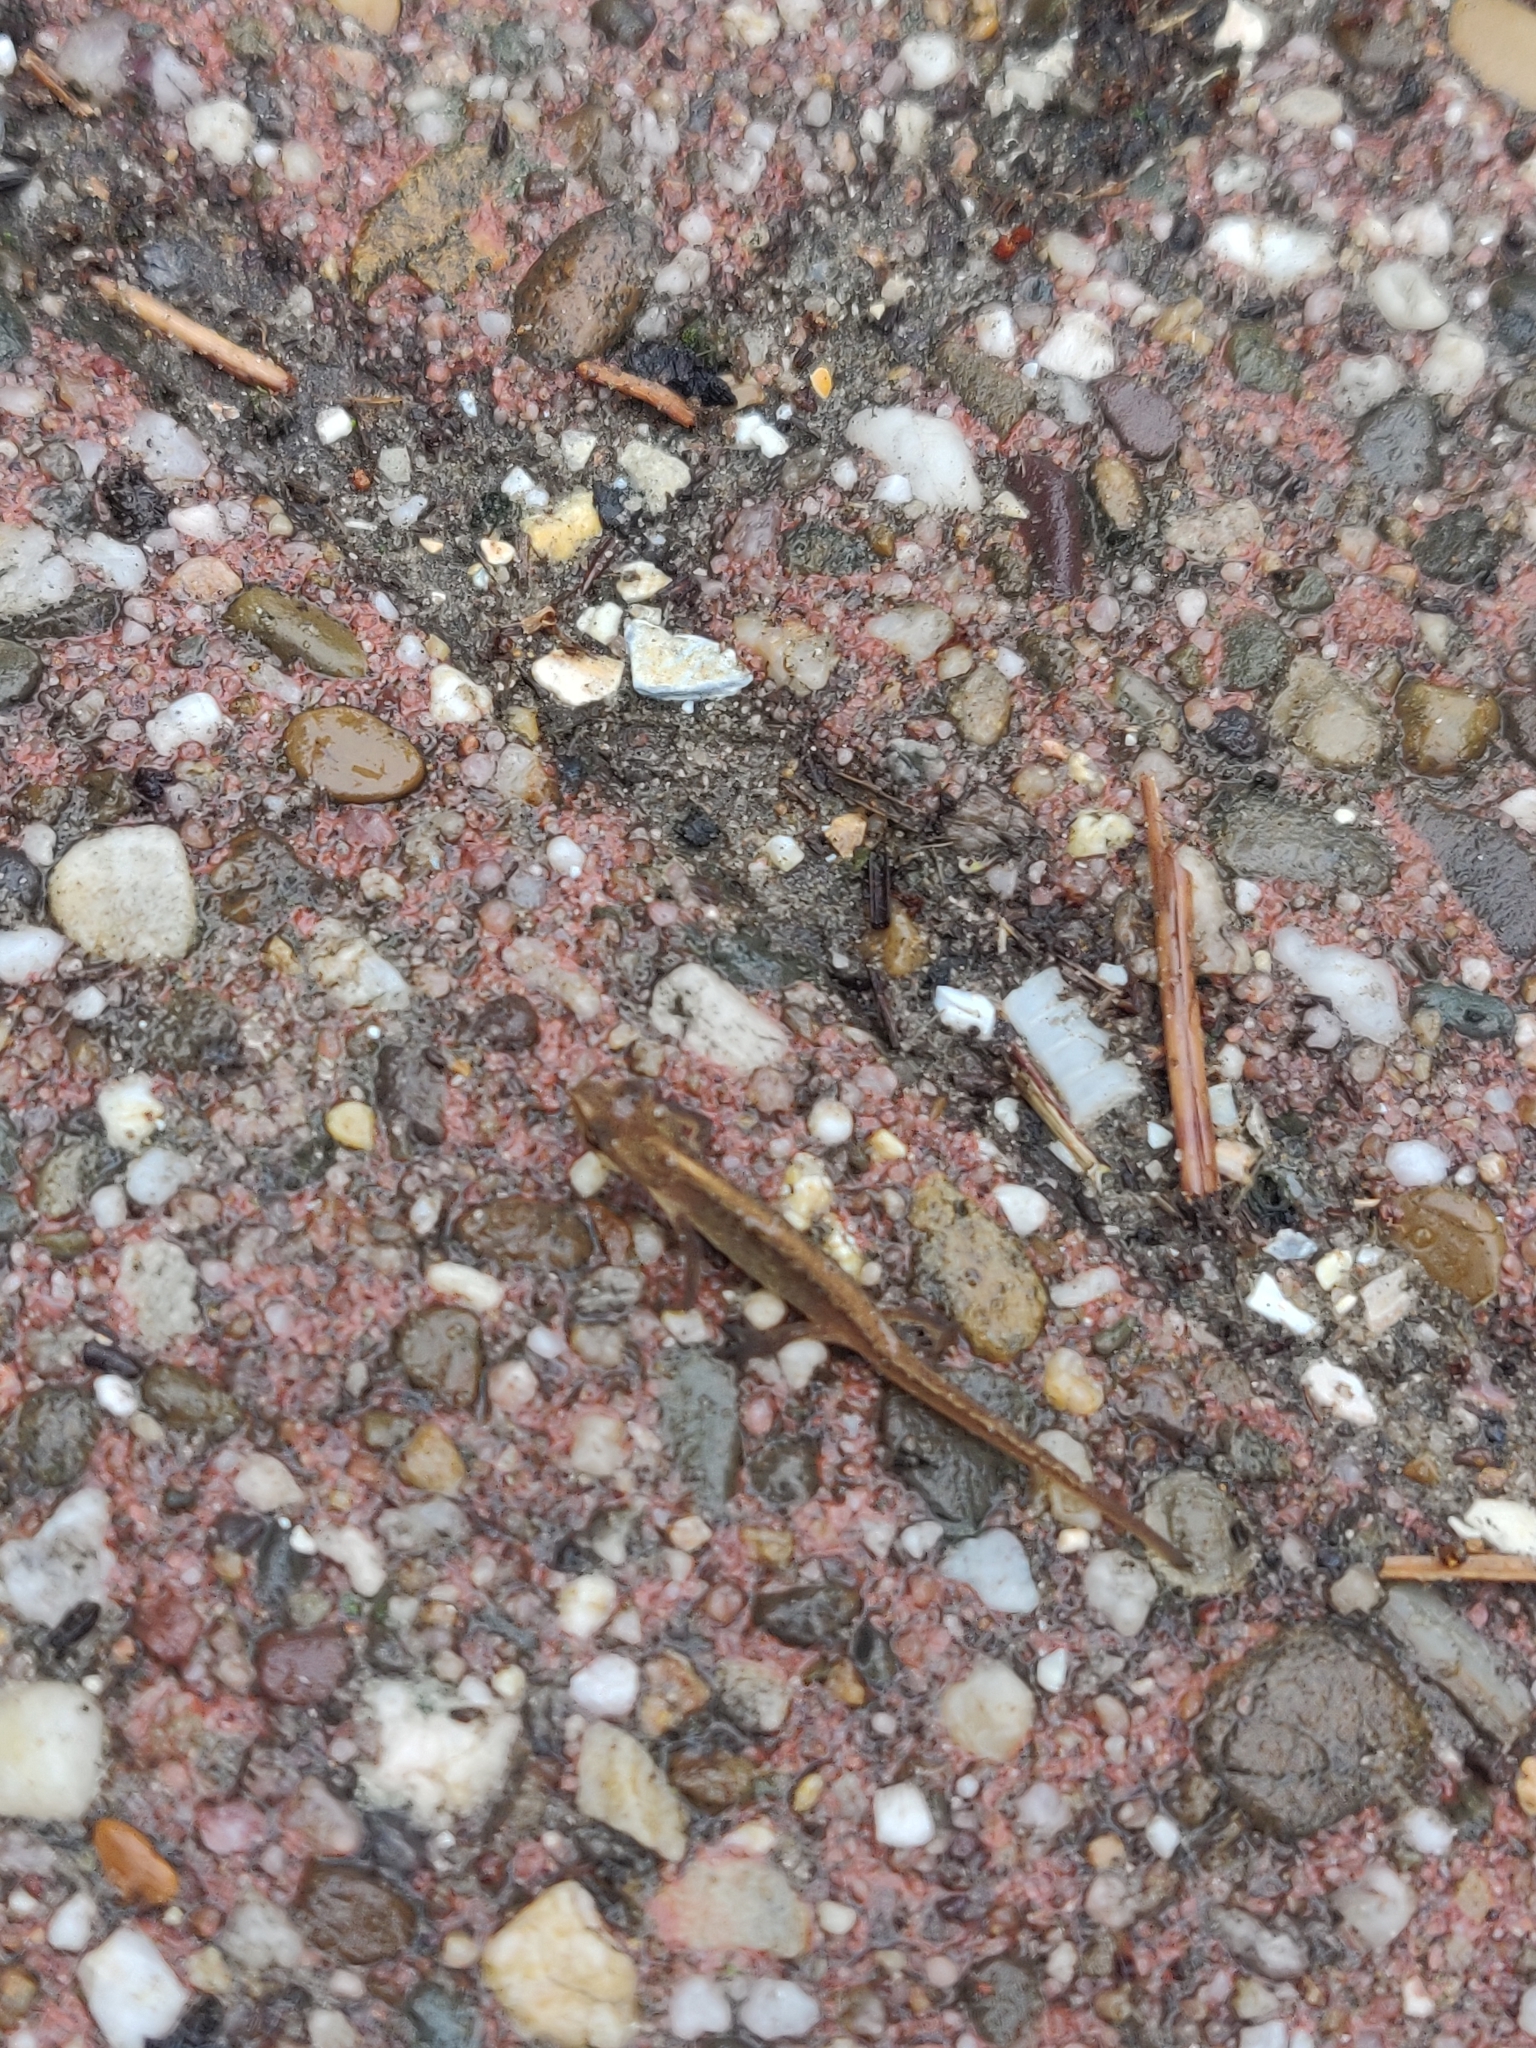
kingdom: Animalia
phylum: Chordata
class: Amphibia
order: Caudata
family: Salamandridae
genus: Lissotriton
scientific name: Lissotriton vulgaris
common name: Smooth newt
